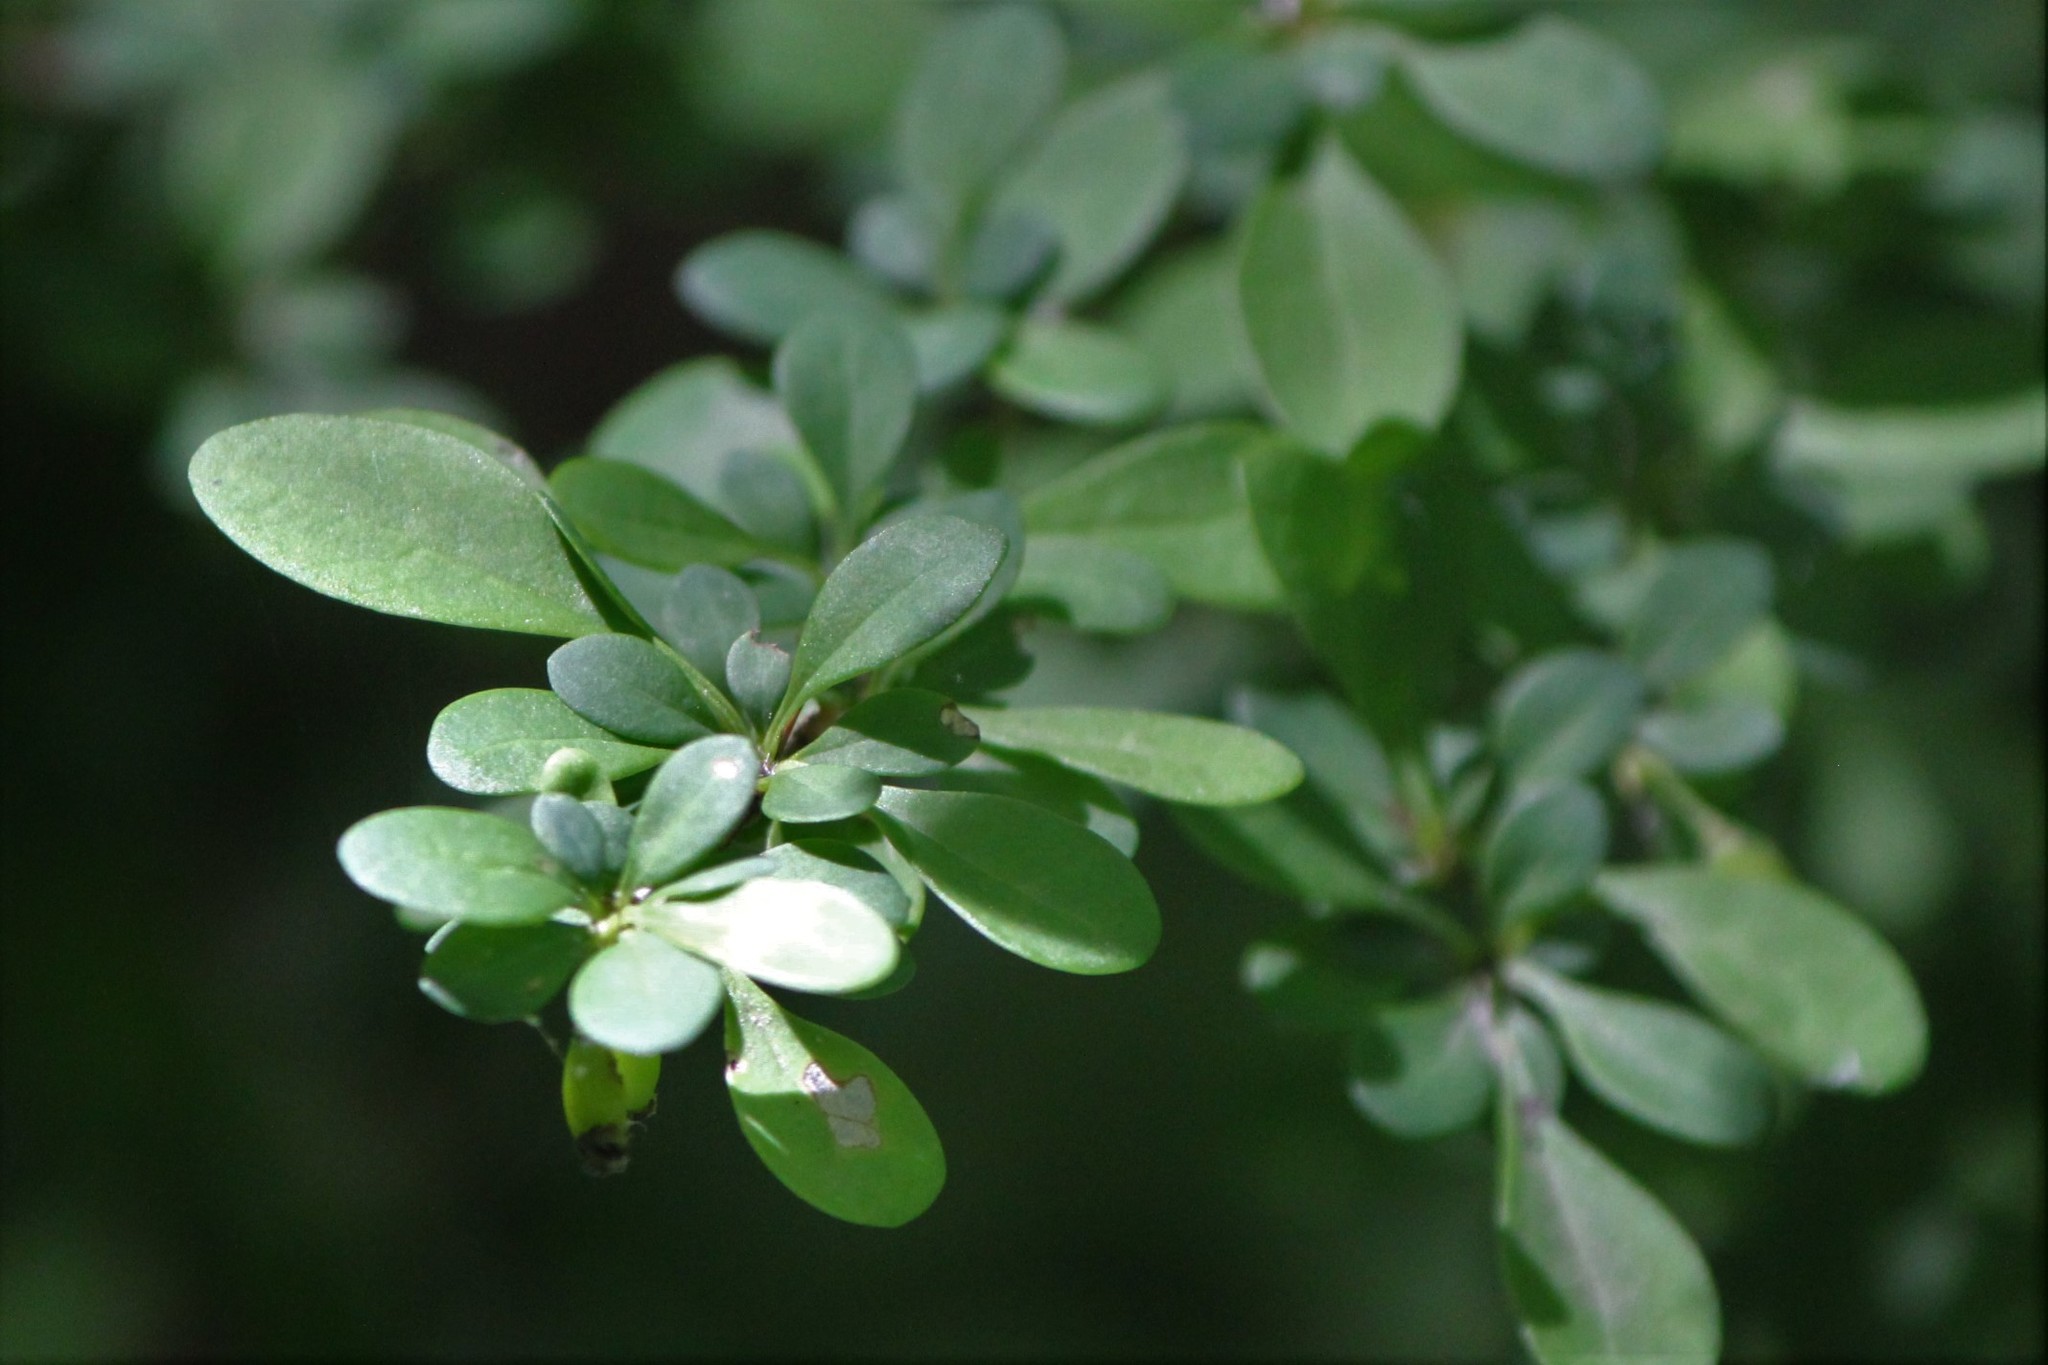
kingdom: Plantae
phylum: Tracheophyta
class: Magnoliopsida
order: Ranunculales
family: Berberidaceae
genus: Berberis
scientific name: Berberis thunbergii
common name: Japanese barberry
